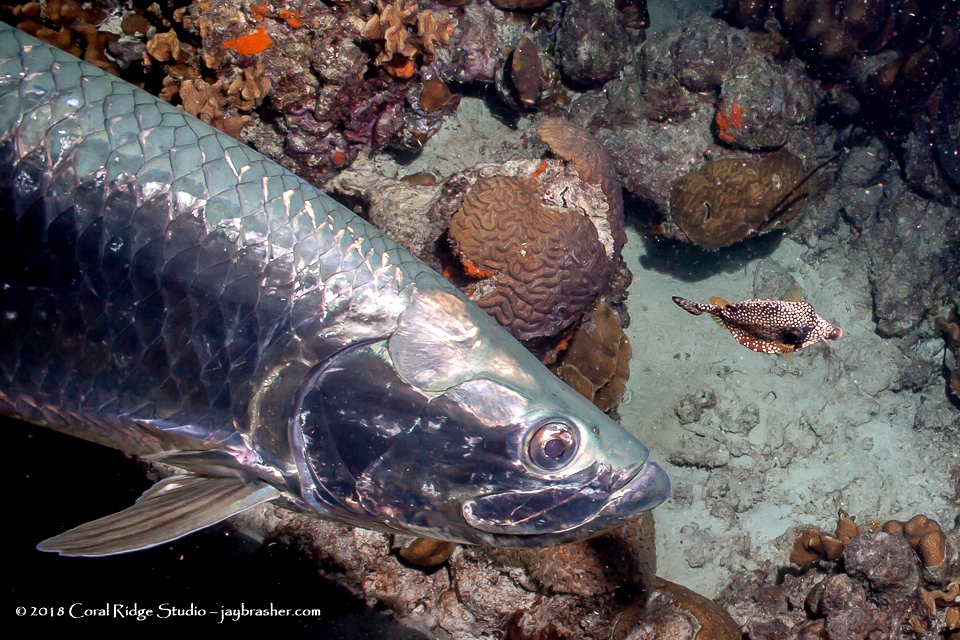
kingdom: Animalia
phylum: Chordata
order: Elopiformes
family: Megalopidae
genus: Megalops
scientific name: Megalops atlanticus
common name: Tarpon
